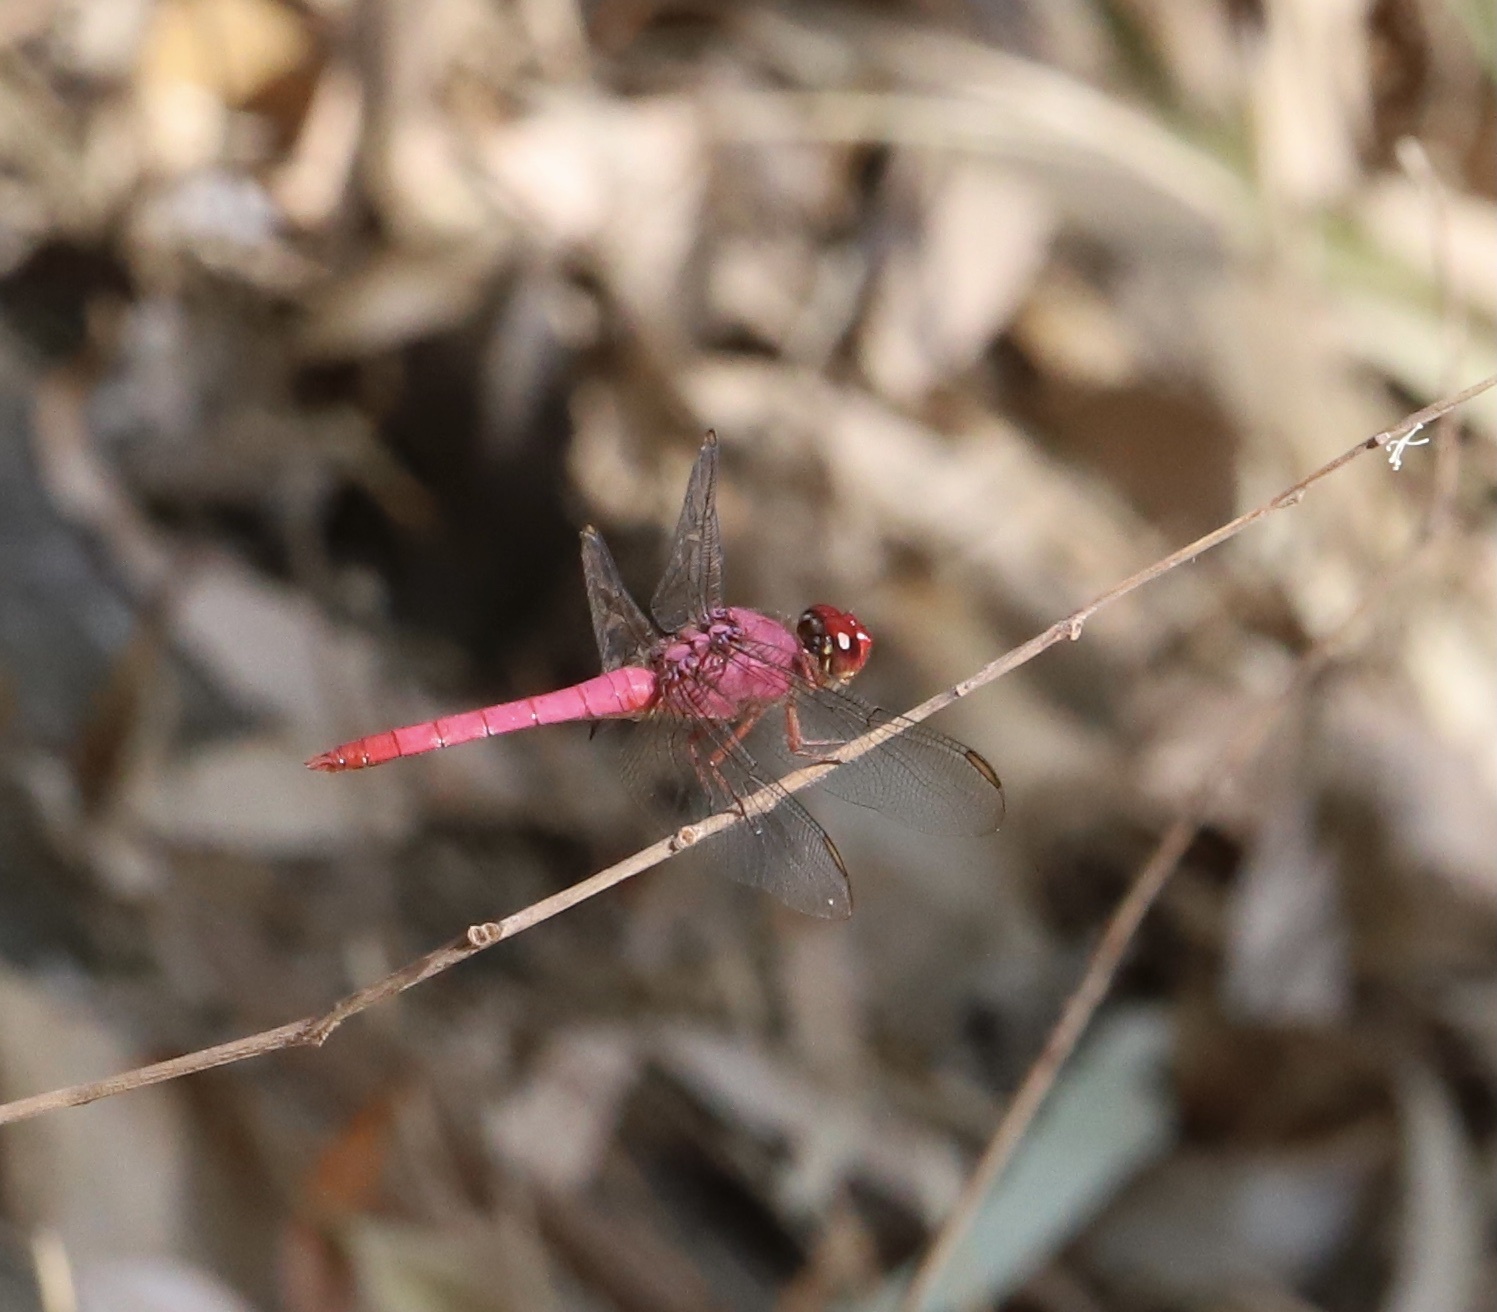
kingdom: Animalia
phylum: Arthropoda
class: Insecta
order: Odonata
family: Libellulidae
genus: Orthemis
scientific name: Orthemis discolor
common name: Carmine skimmer
